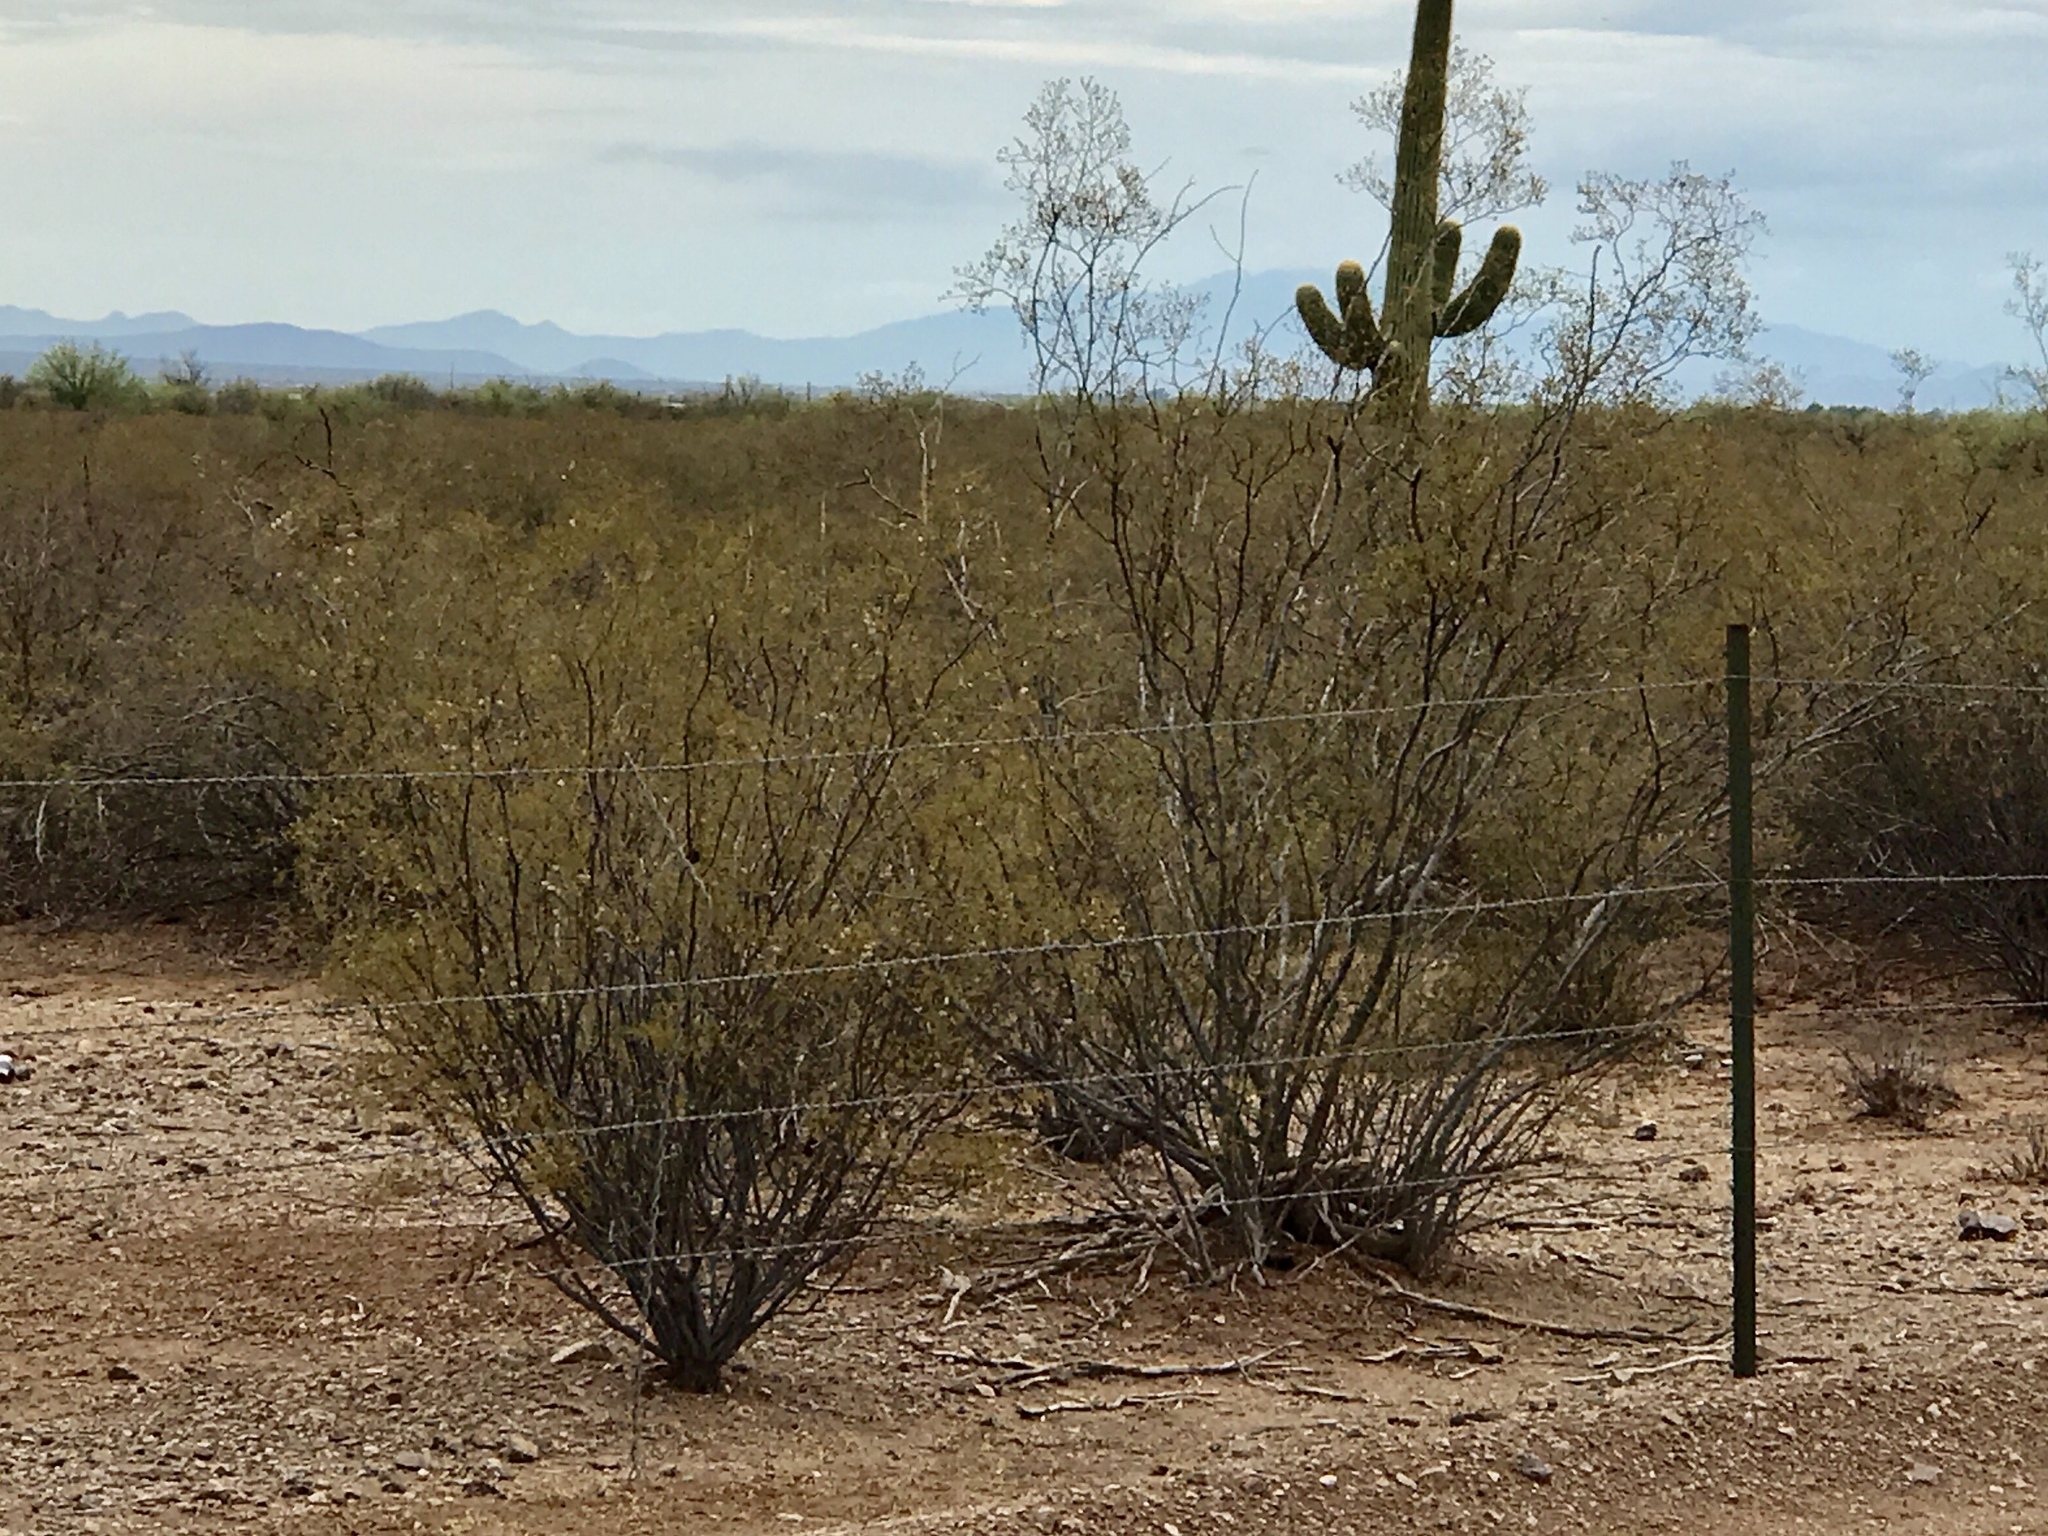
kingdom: Plantae
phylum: Tracheophyta
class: Magnoliopsida
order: Zygophyllales
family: Zygophyllaceae
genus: Larrea
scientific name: Larrea tridentata
